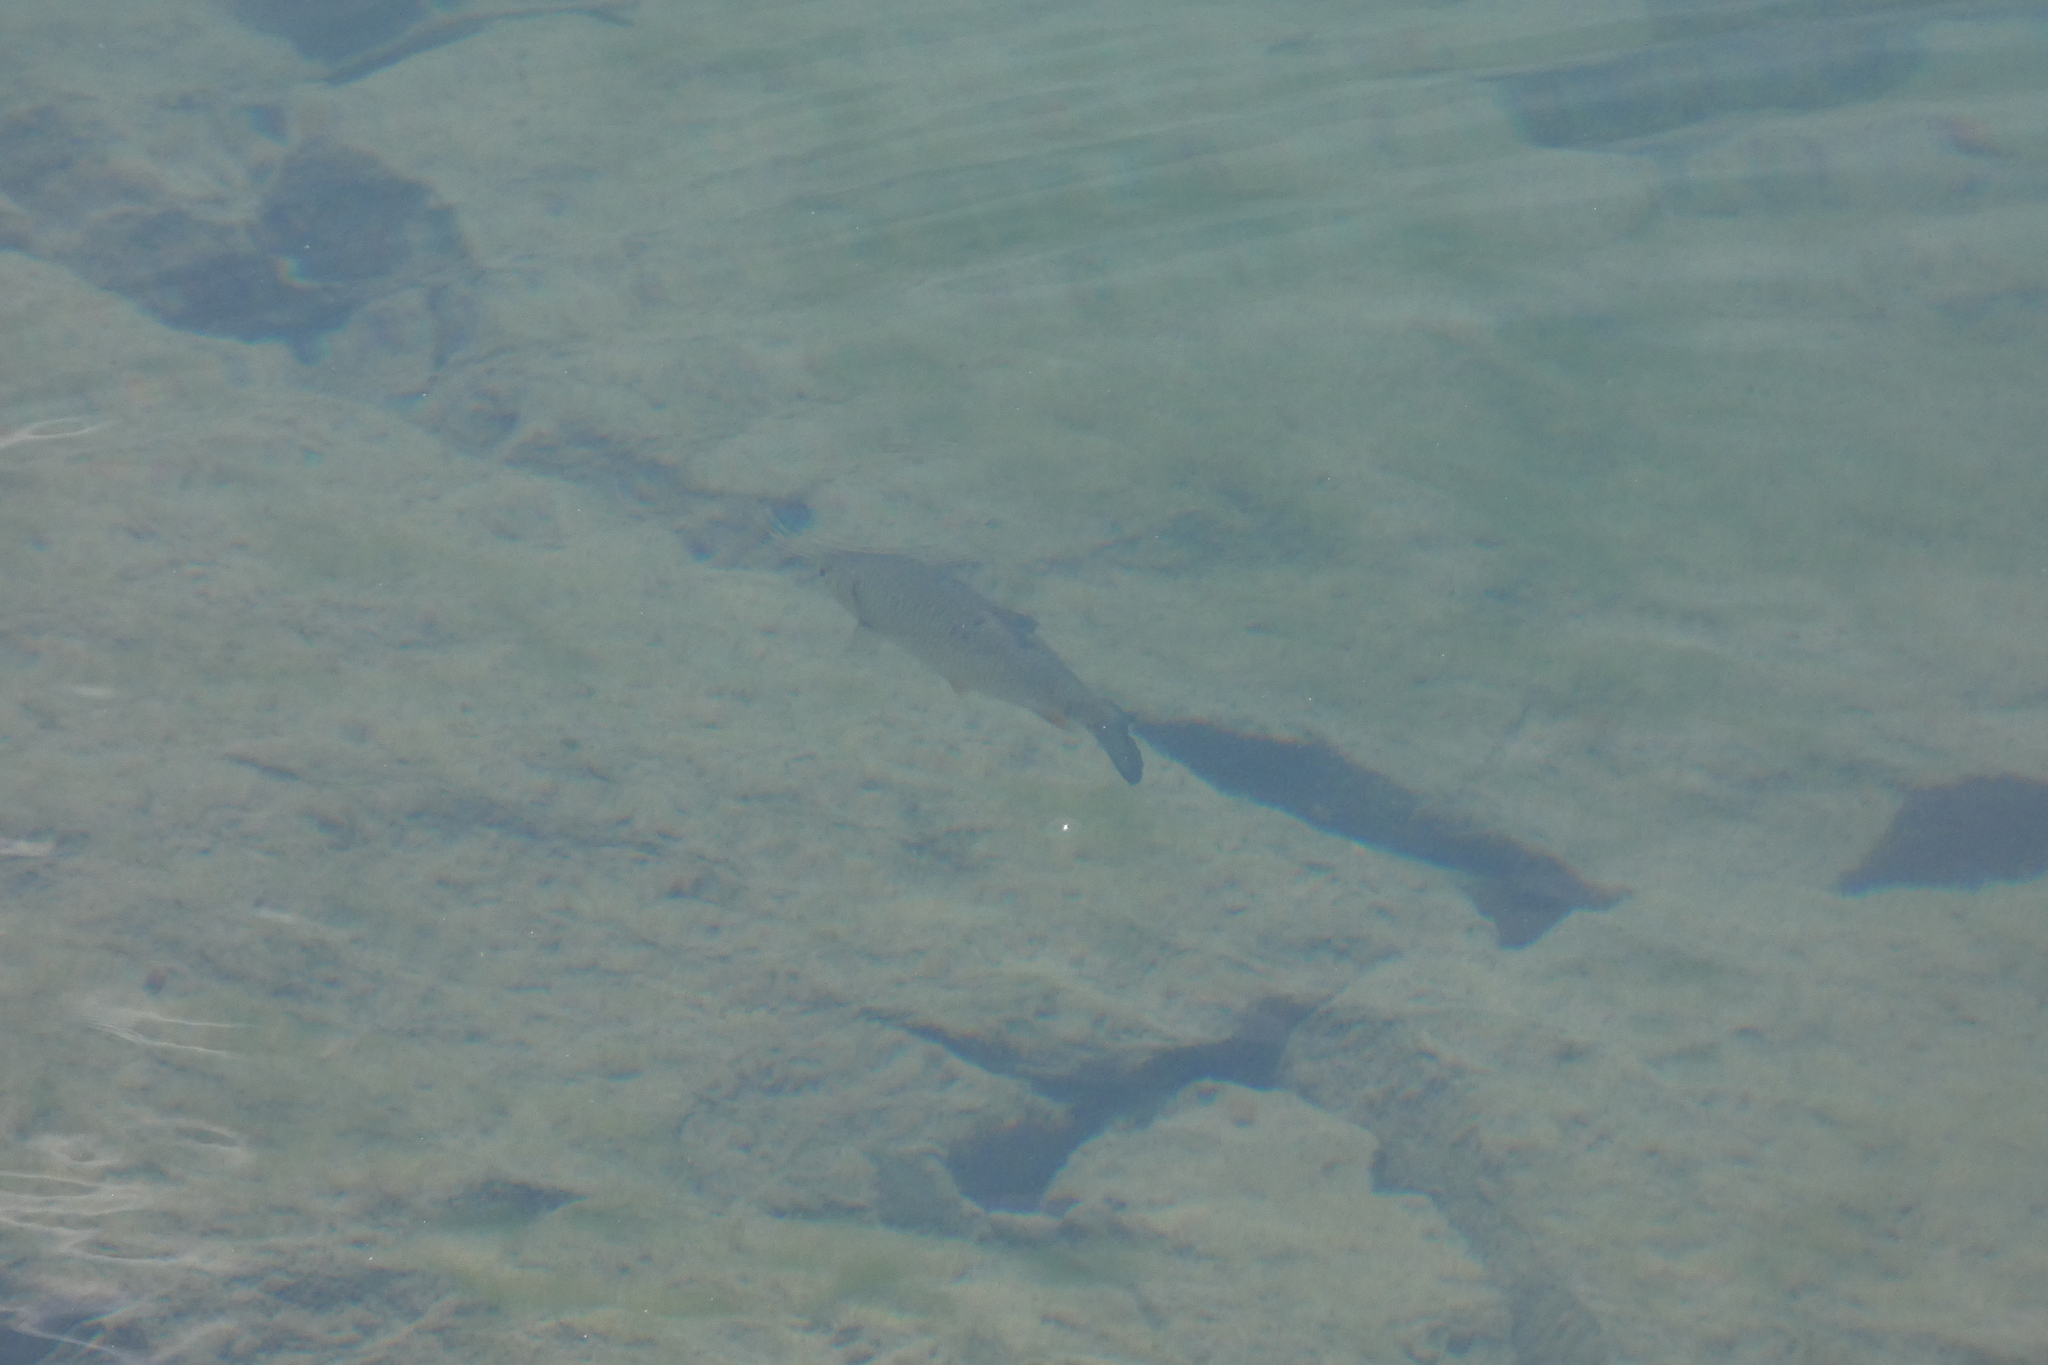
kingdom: Animalia
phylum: Chordata
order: Cypriniformes
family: Cyprinidae
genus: Squalius
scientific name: Squalius cephalus
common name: Chub
